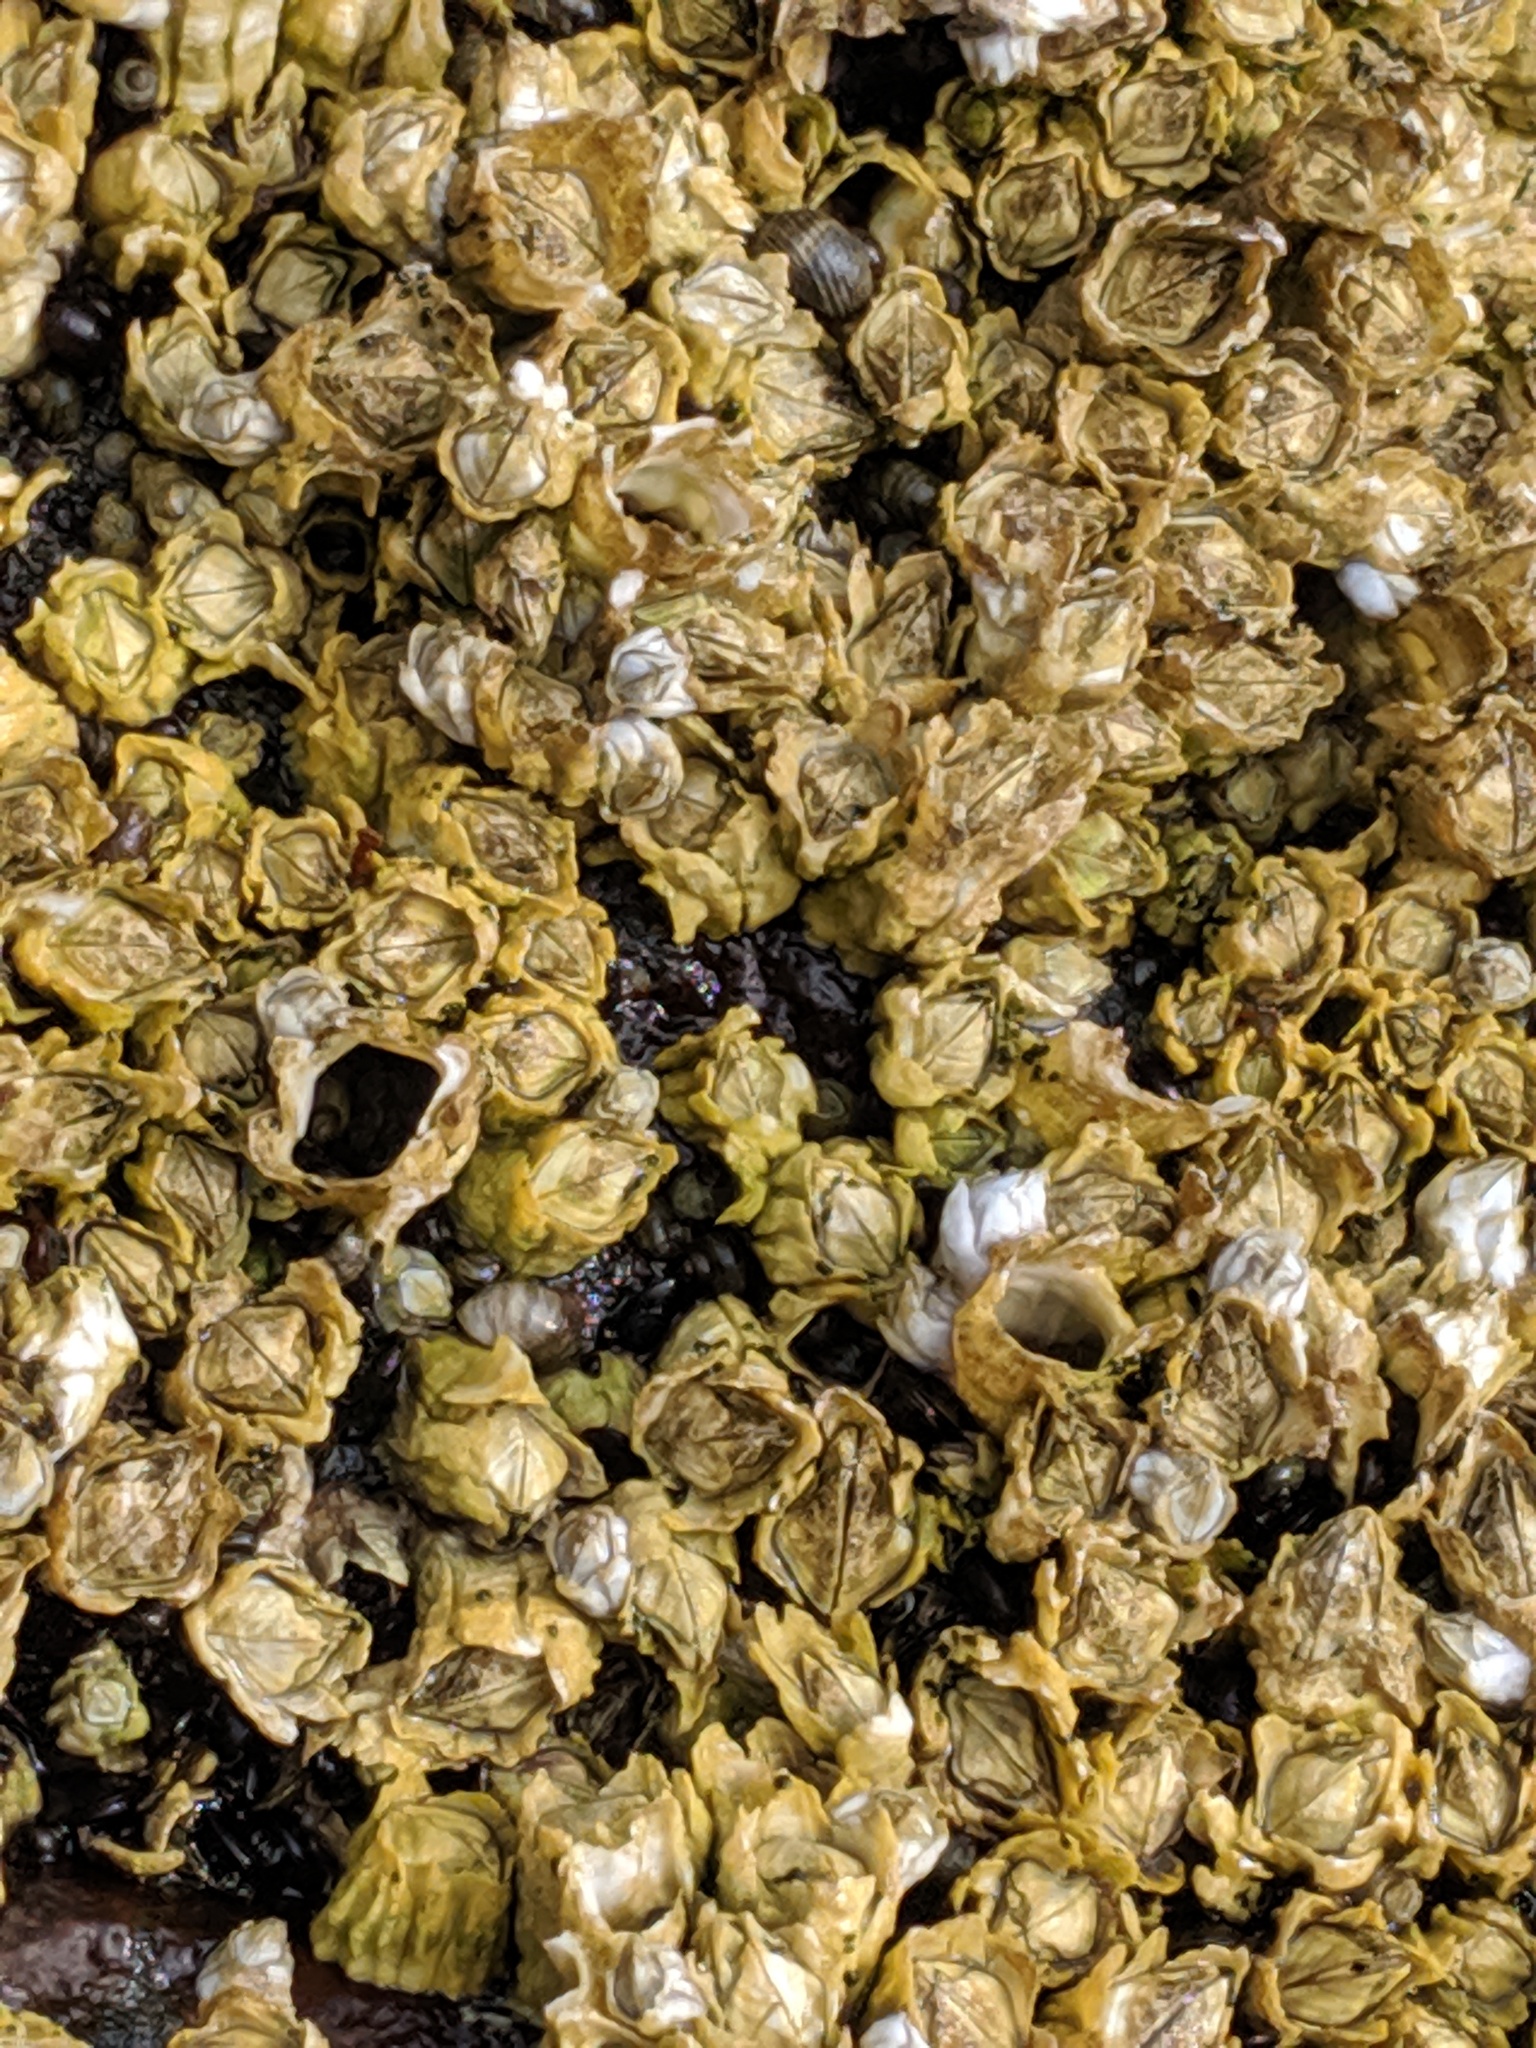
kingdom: Animalia
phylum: Arthropoda
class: Maxillopoda
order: Sessilia
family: Archaeobalanidae
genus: Semibalanus
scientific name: Semibalanus balanoides
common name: Acorn barnacle
